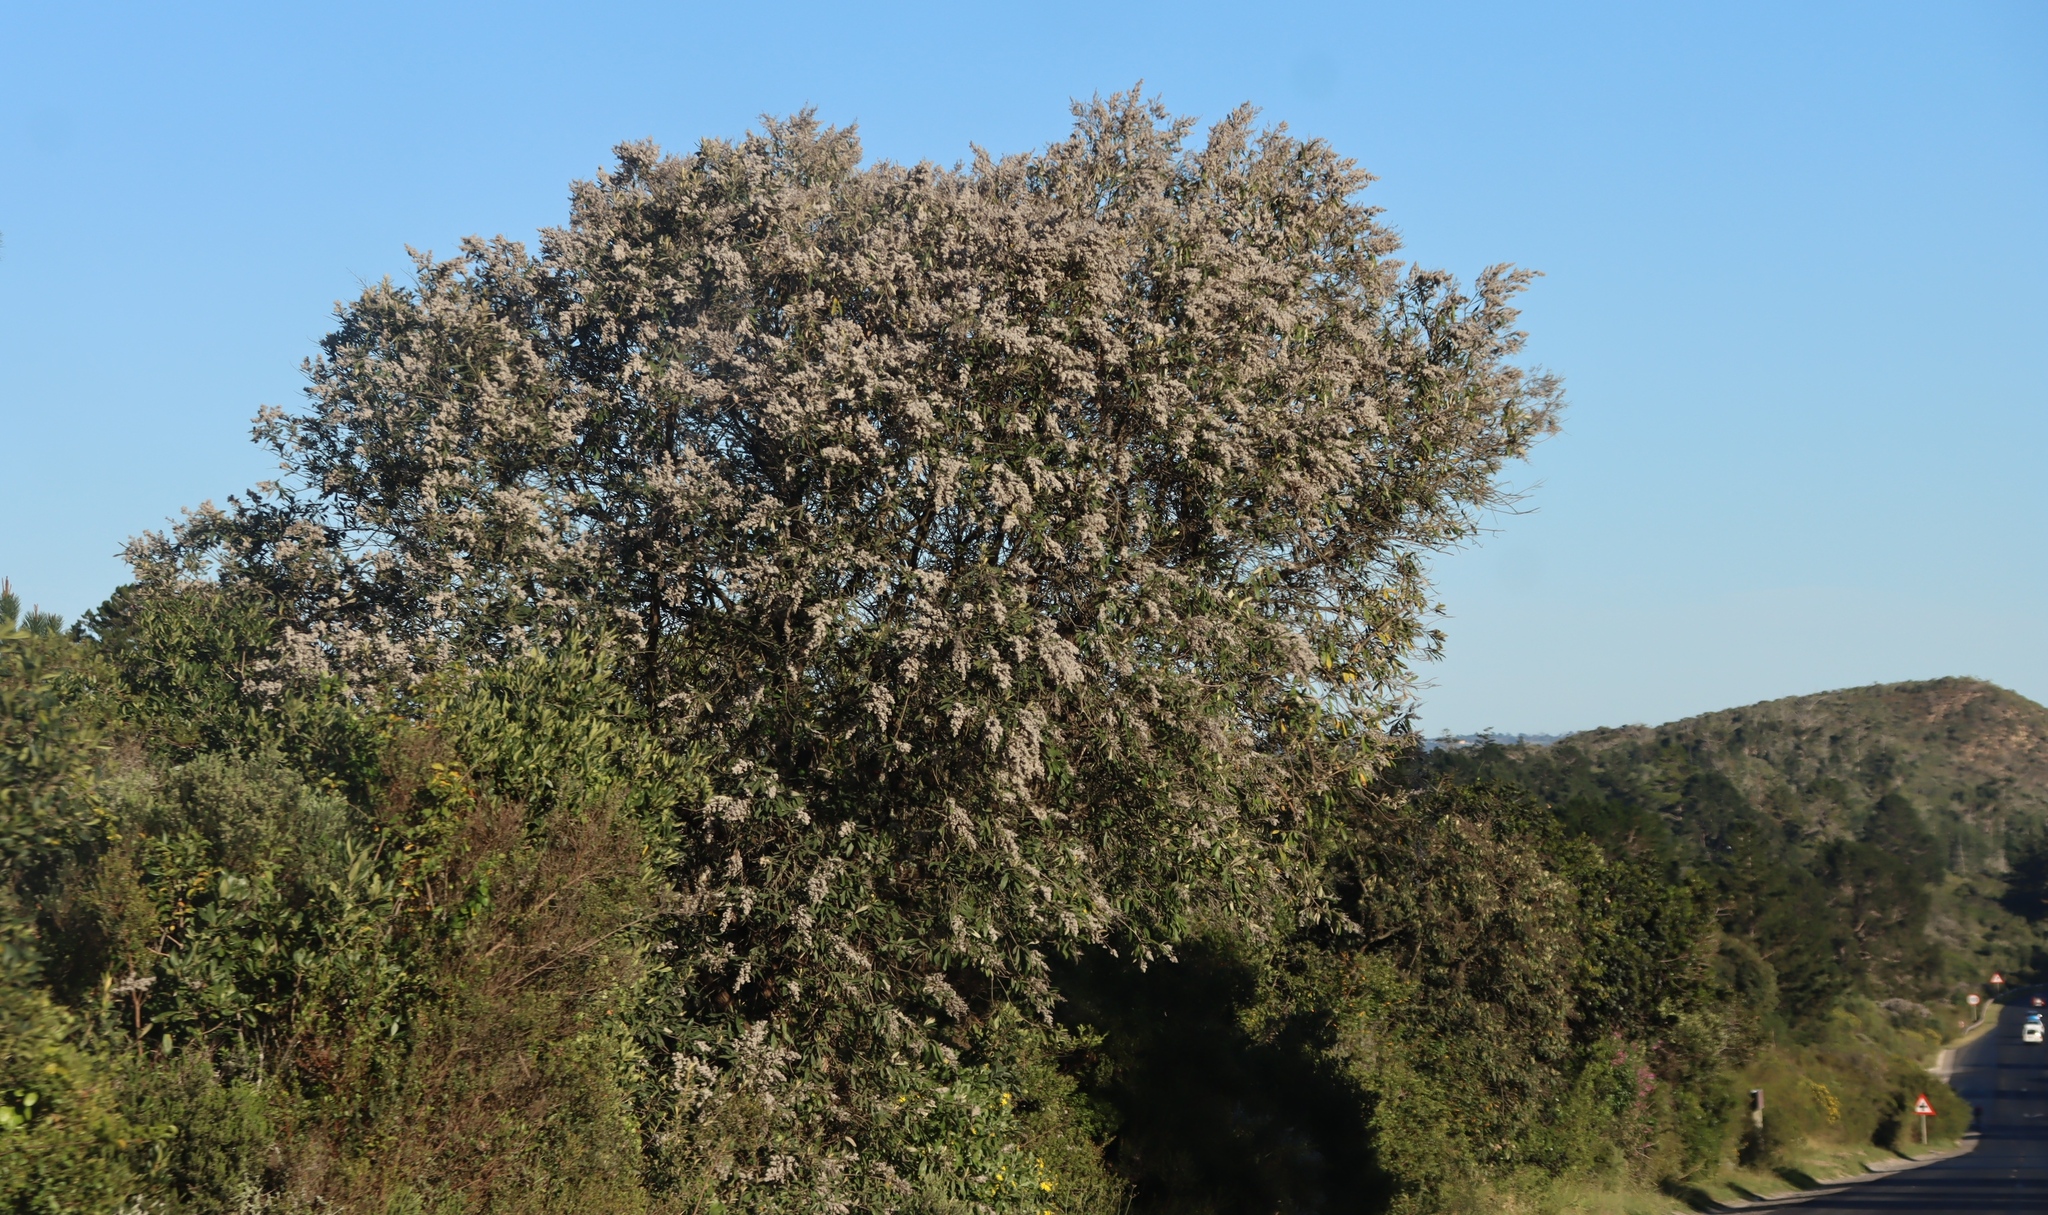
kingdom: Plantae
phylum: Tracheophyta
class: Magnoliopsida
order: Asterales
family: Asteraceae
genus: Tarchonanthus
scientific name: Tarchonanthus littoralis
